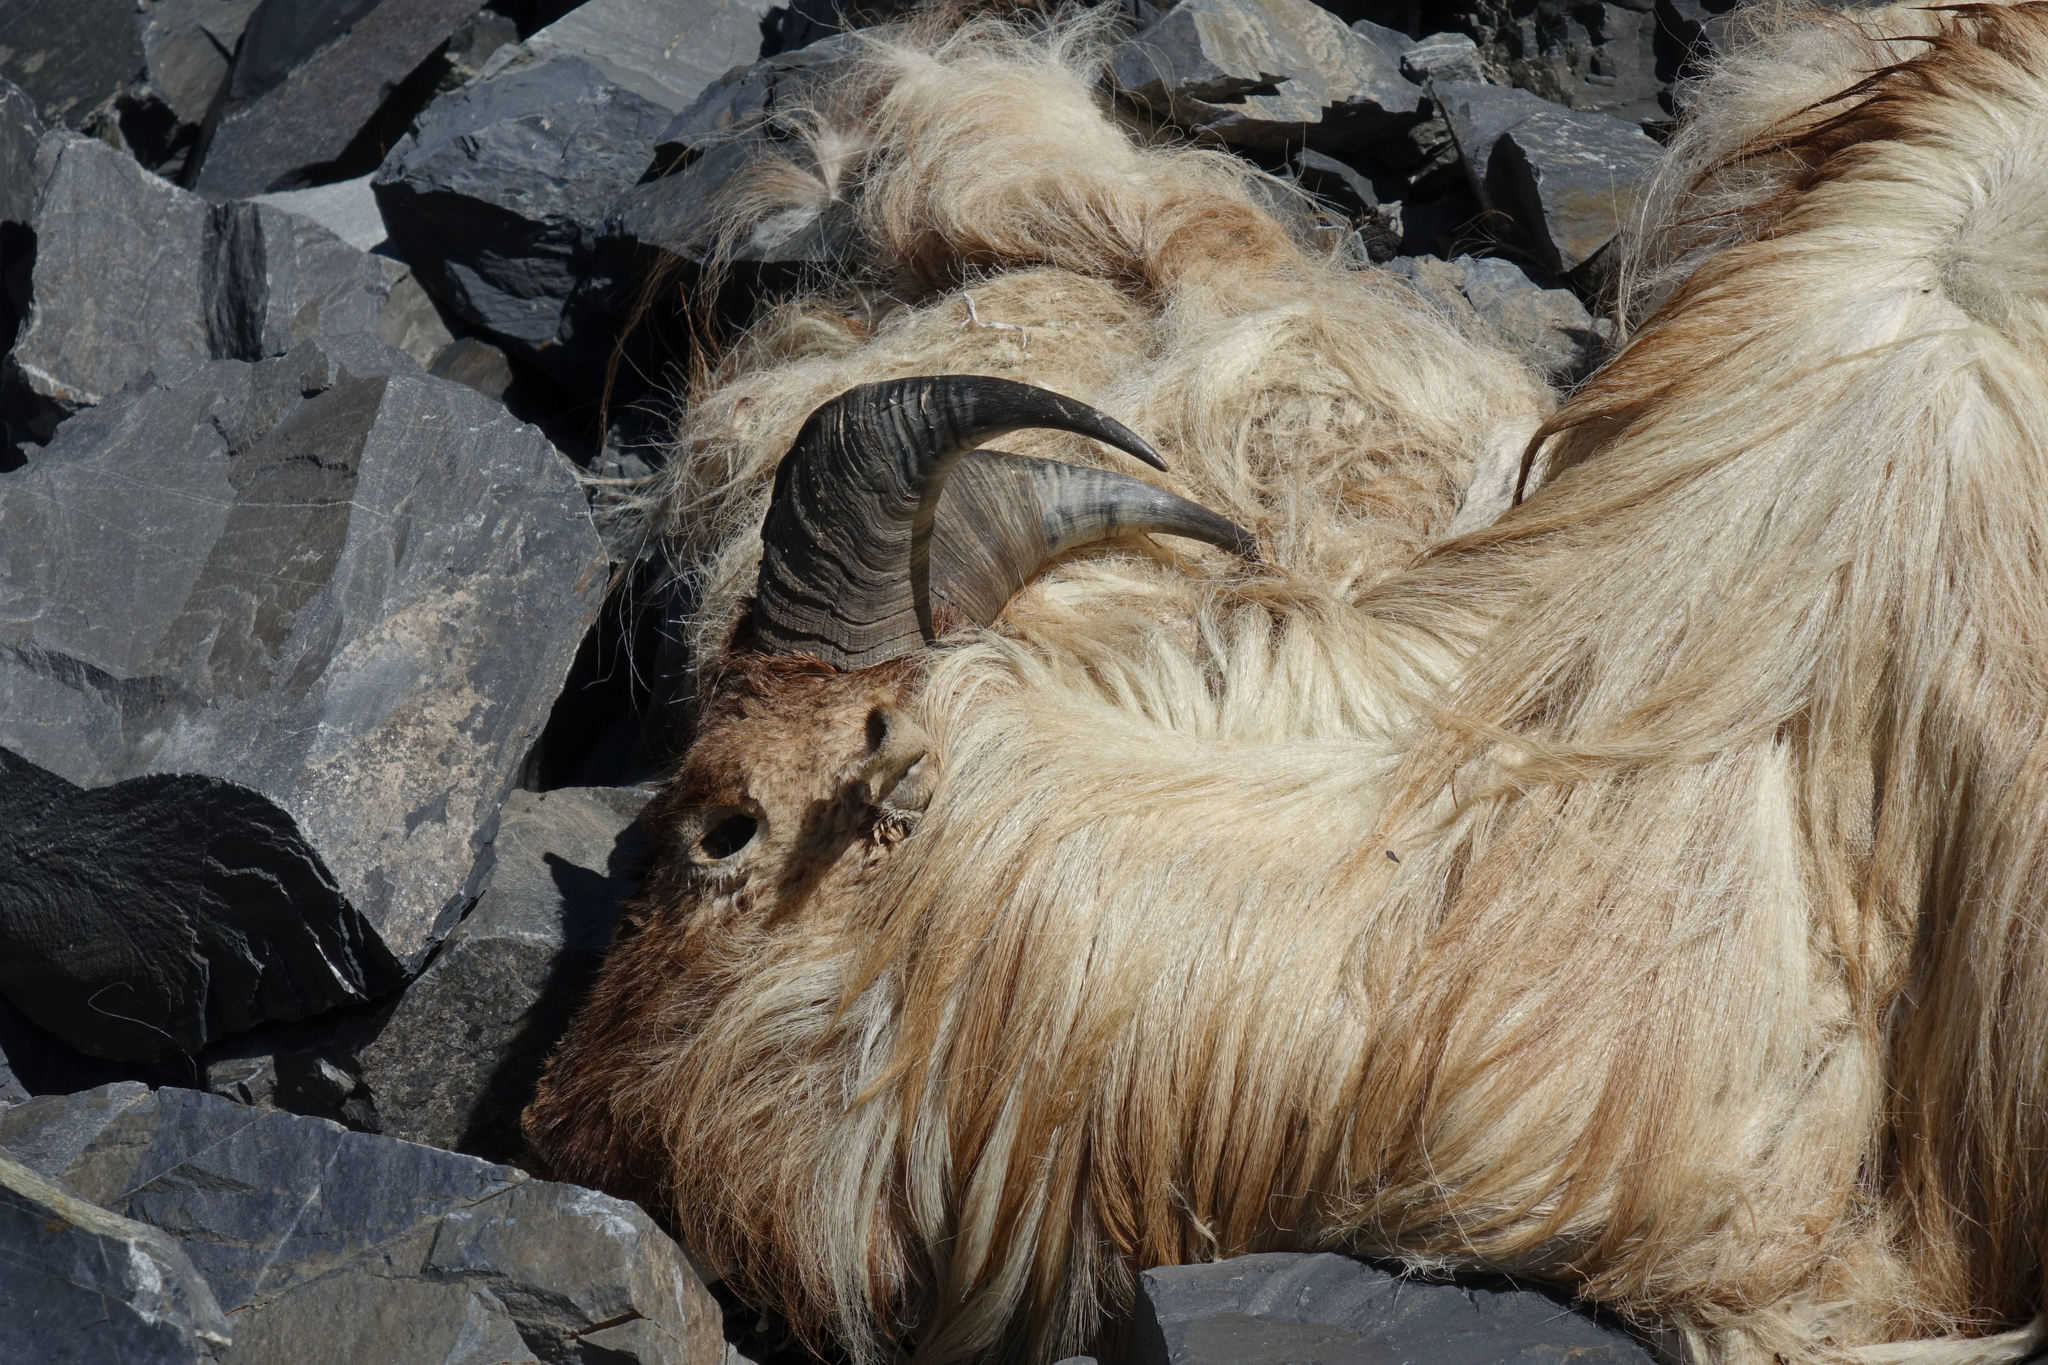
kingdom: Animalia
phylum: Chordata
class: Mammalia
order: Artiodactyla
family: Bovidae
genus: Hemitragus
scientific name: Hemitragus jemlahicus
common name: Himalayan tahr
